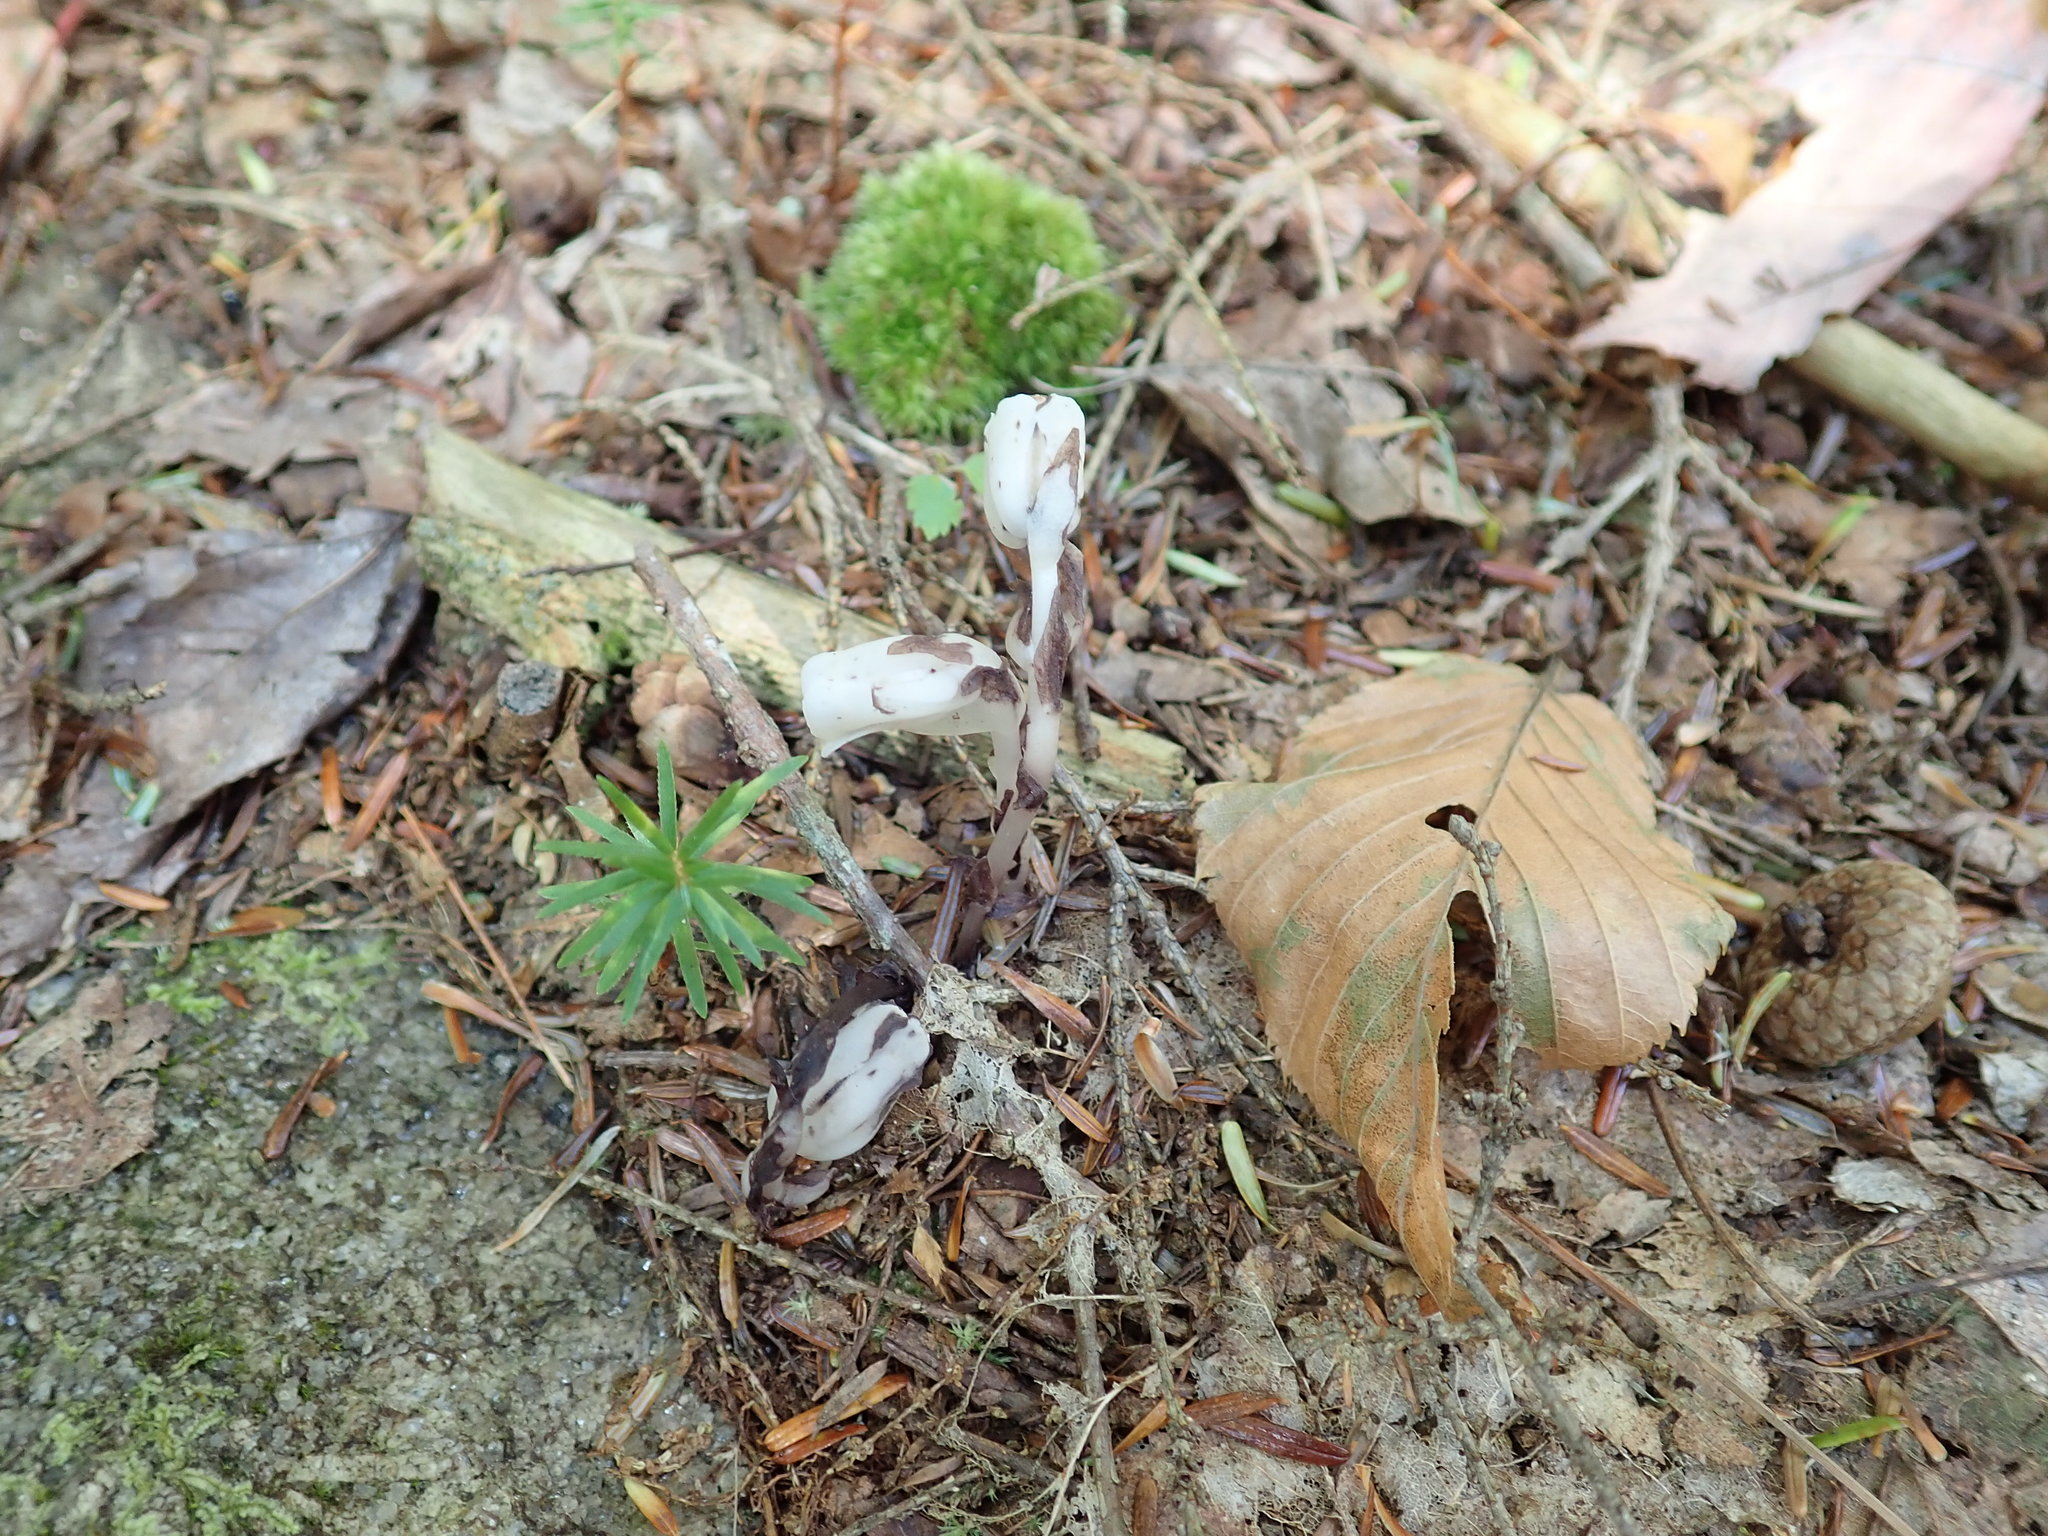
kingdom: Plantae
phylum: Tracheophyta
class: Magnoliopsida
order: Ericales
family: Ericaceae
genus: Monotropa
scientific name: Monotropa uniflora
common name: Convulsion root
